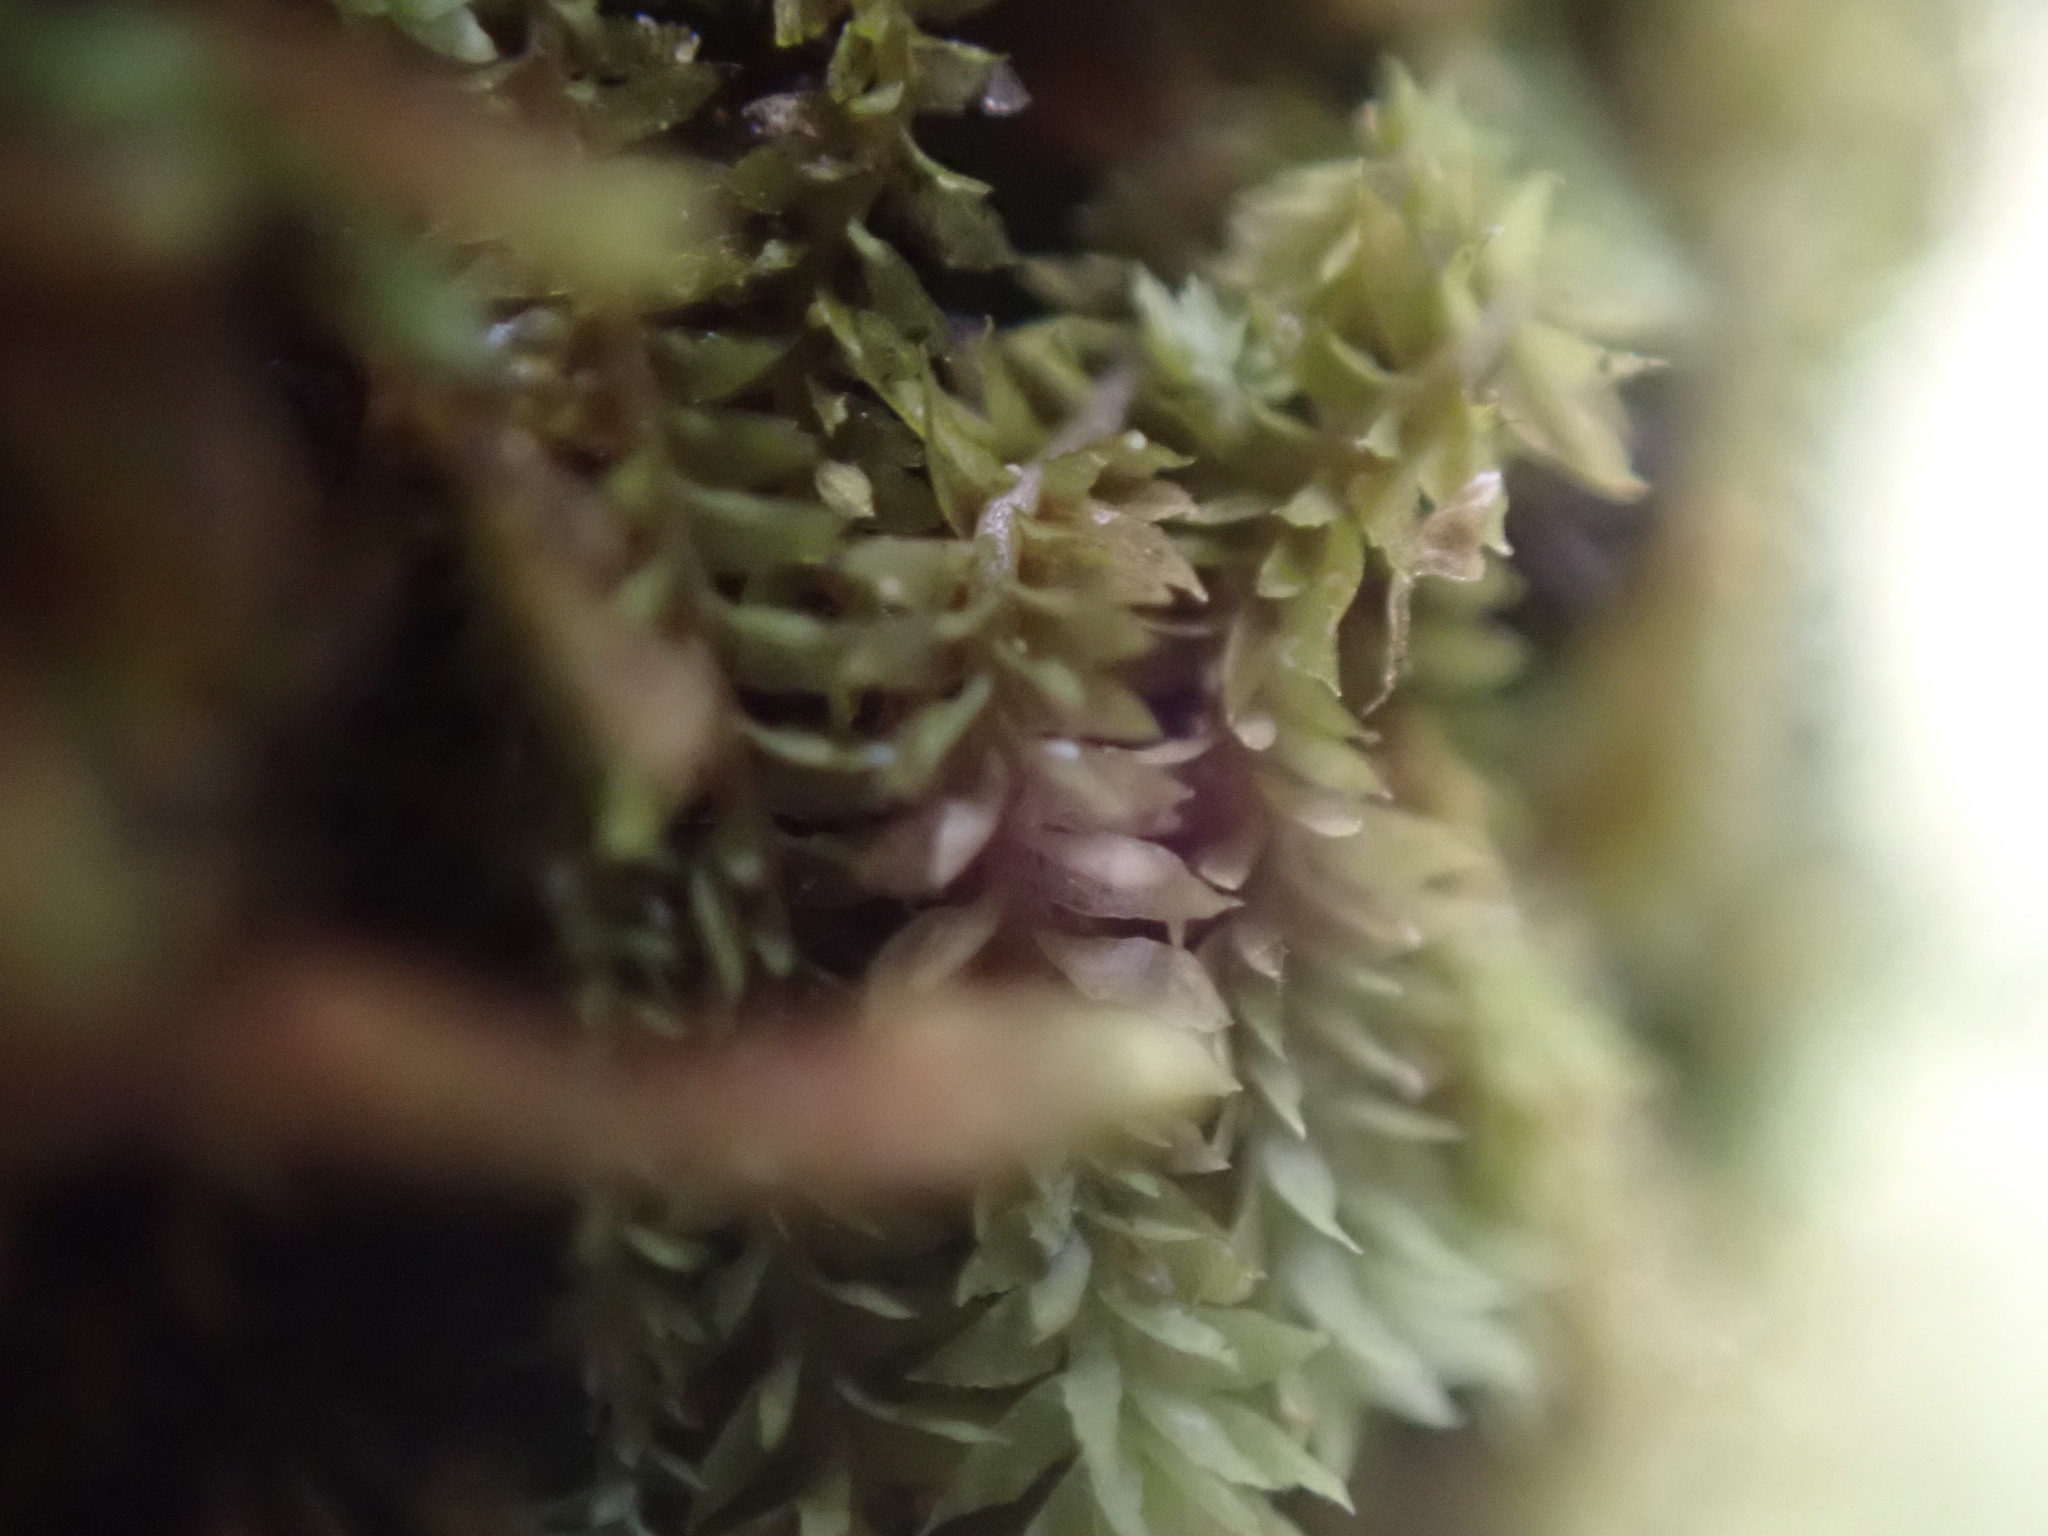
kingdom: Plantae
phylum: Marchantiophyta
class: Jungermanniopsida
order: Jungermanniales
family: Scapaniaceae
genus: Douinia
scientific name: Douinia ovata
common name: Waxy earwort
